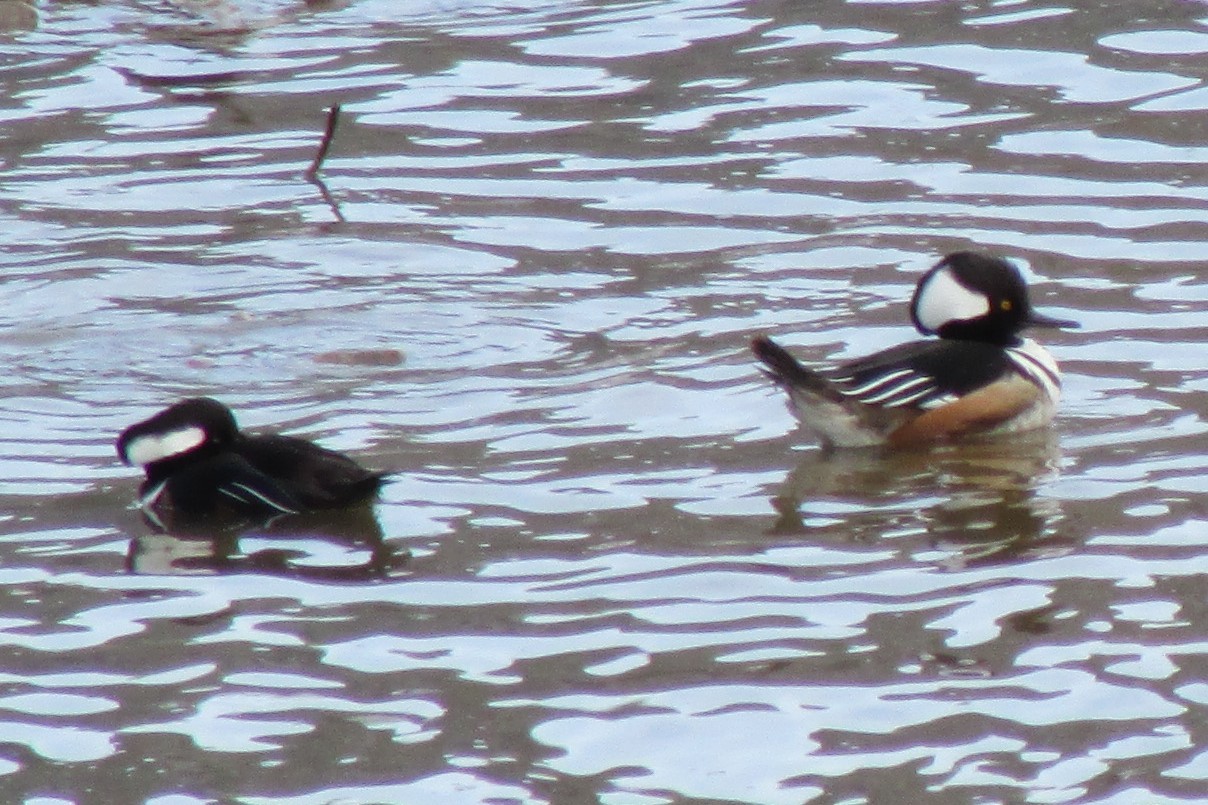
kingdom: Animalia
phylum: Chordata
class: Aves
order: Anseriformes
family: Anatidae
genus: Lophodytes
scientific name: Lophodytes cucullatus
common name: Hooded merganser
